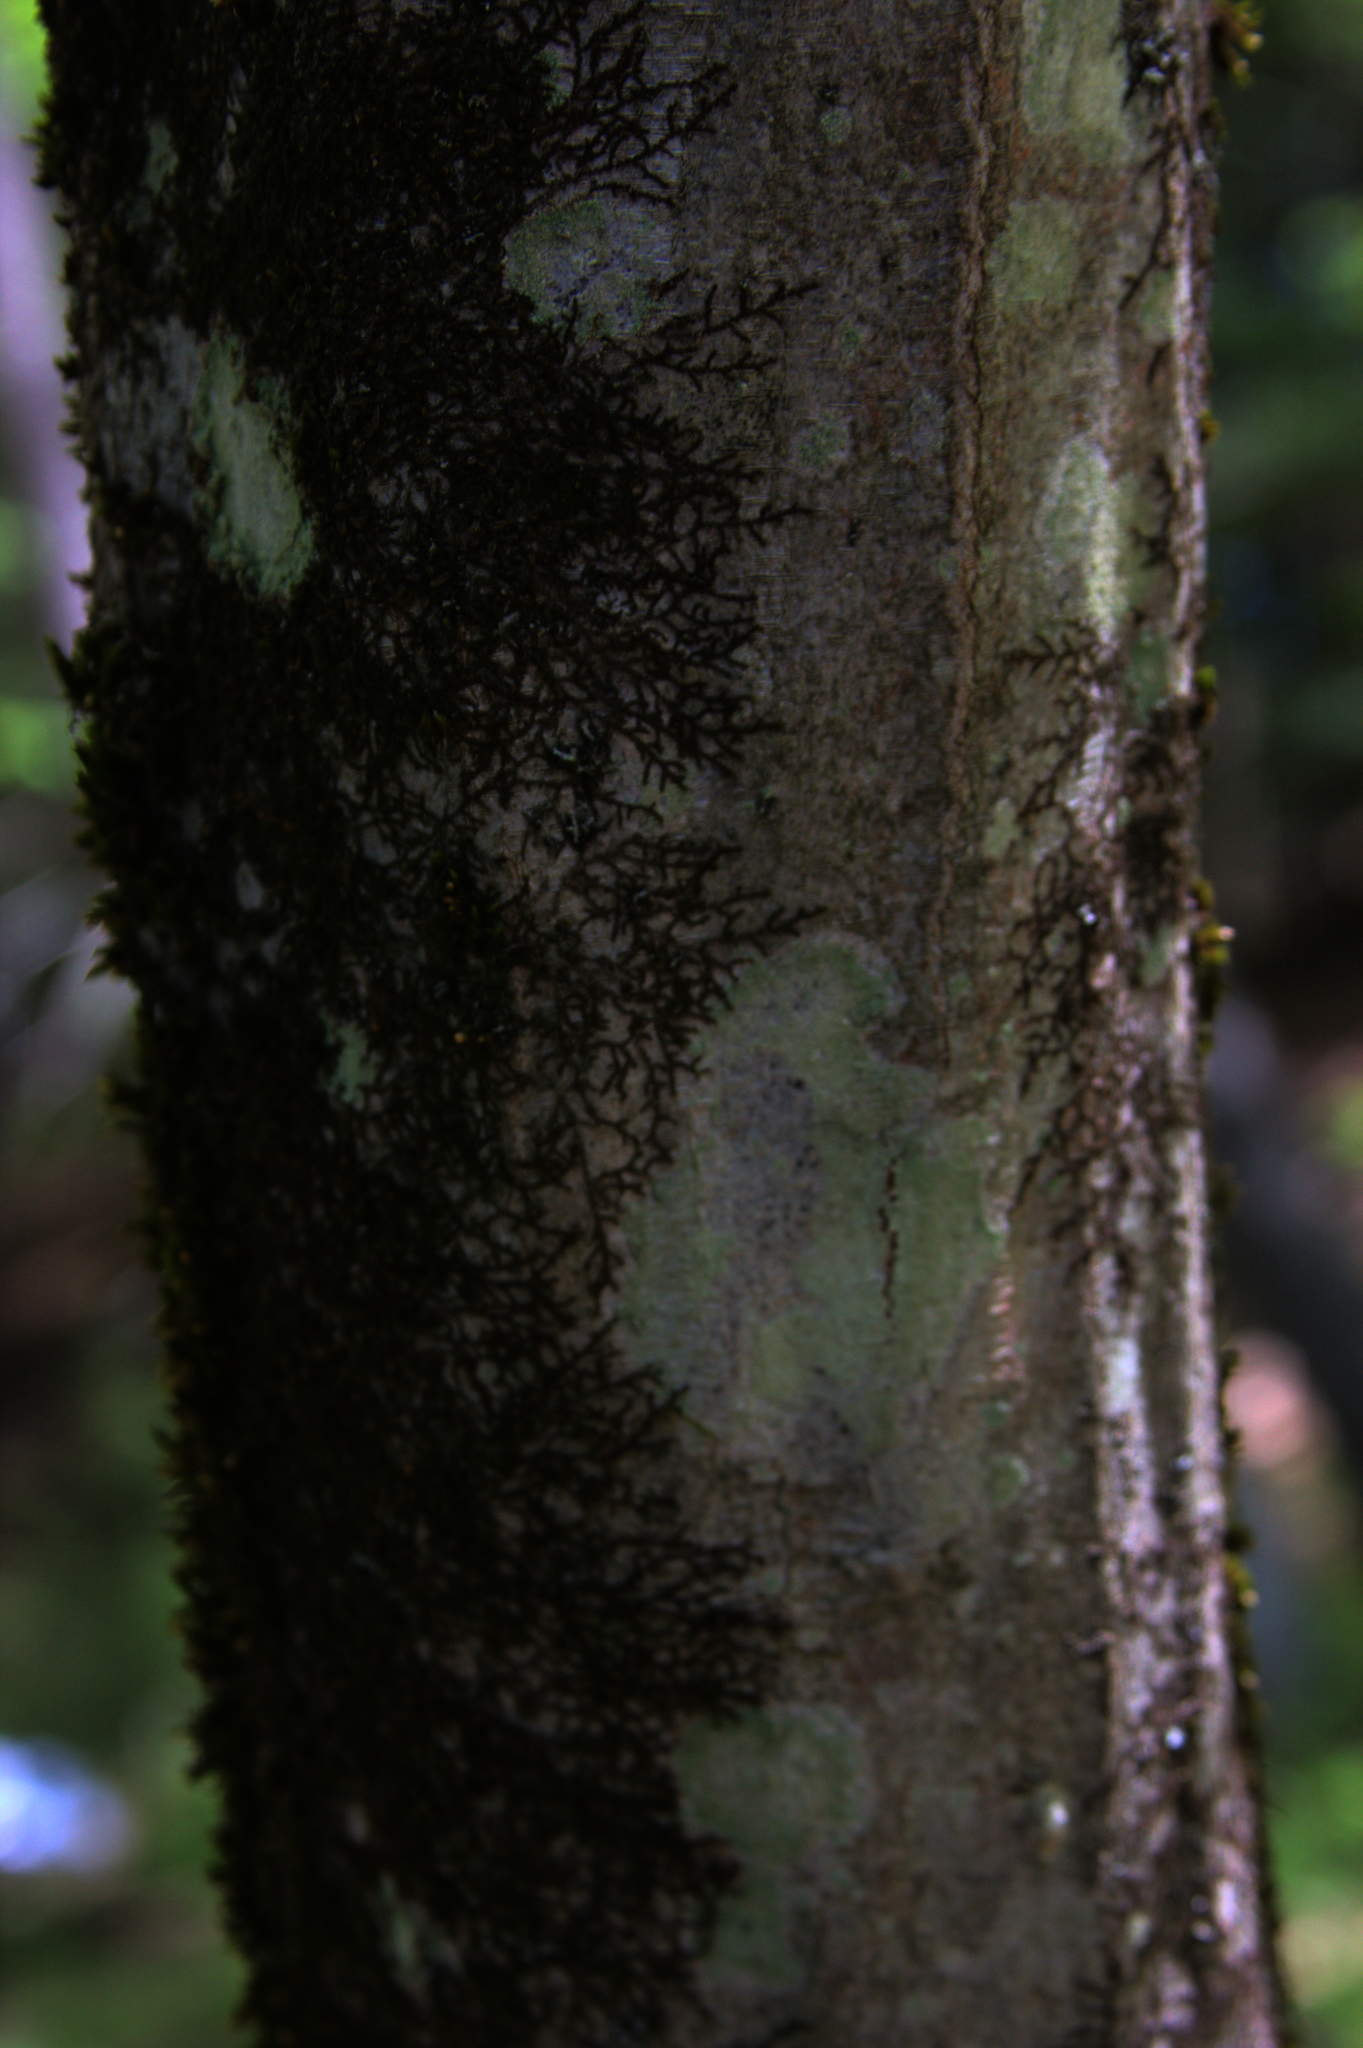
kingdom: Plantae
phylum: Marchantiophyta
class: Jungermanniopsida
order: Porellales
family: Frullaniaceae
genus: Frullania
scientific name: Frullania eboracensis
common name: New york scalewort
